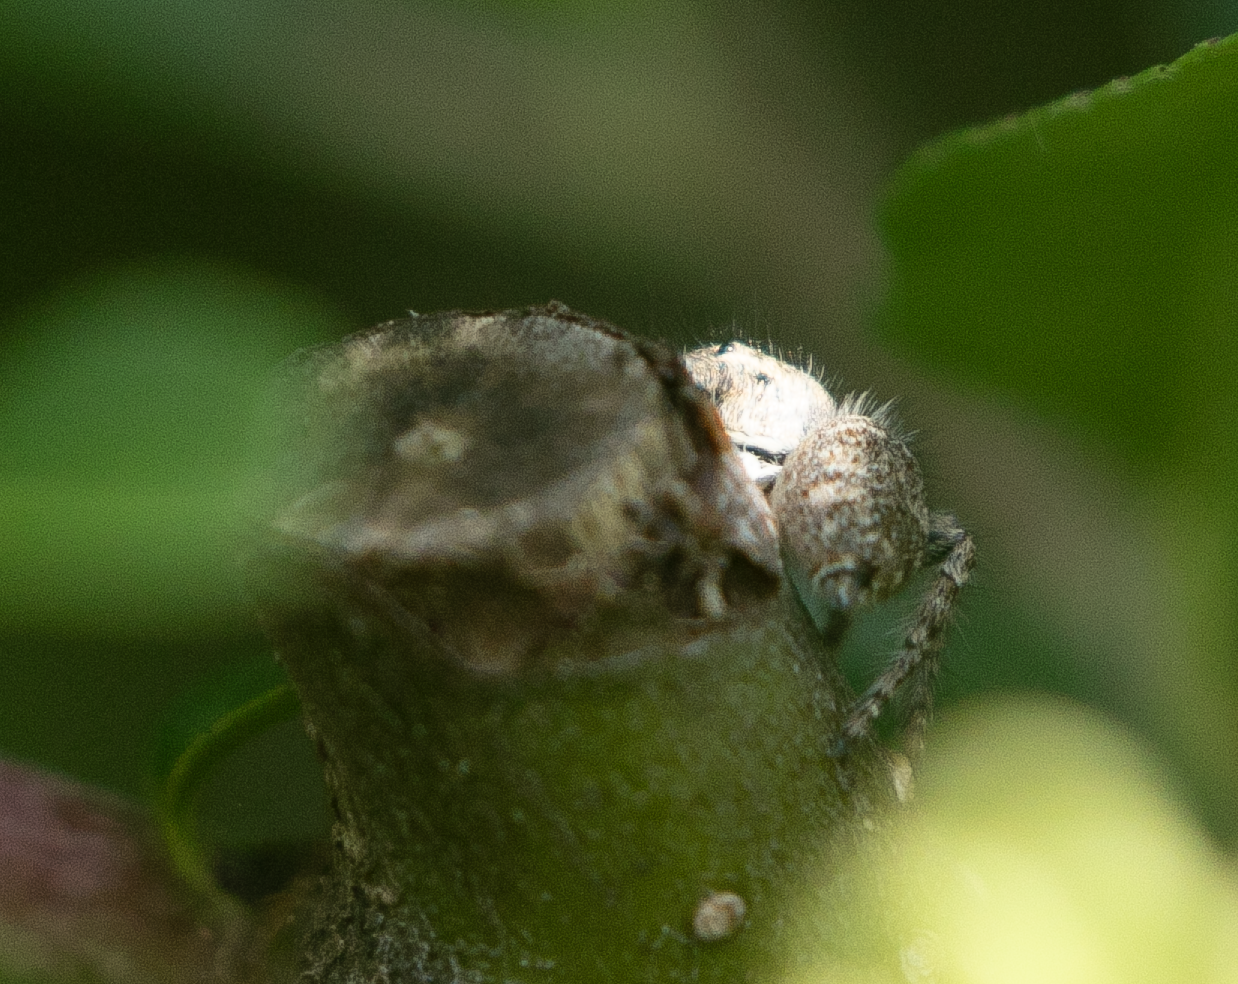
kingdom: Animalia
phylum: Arthropoda
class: Arachnida
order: Araneae
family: Salticidae
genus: Philaeus
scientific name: Philaeus chrysops
